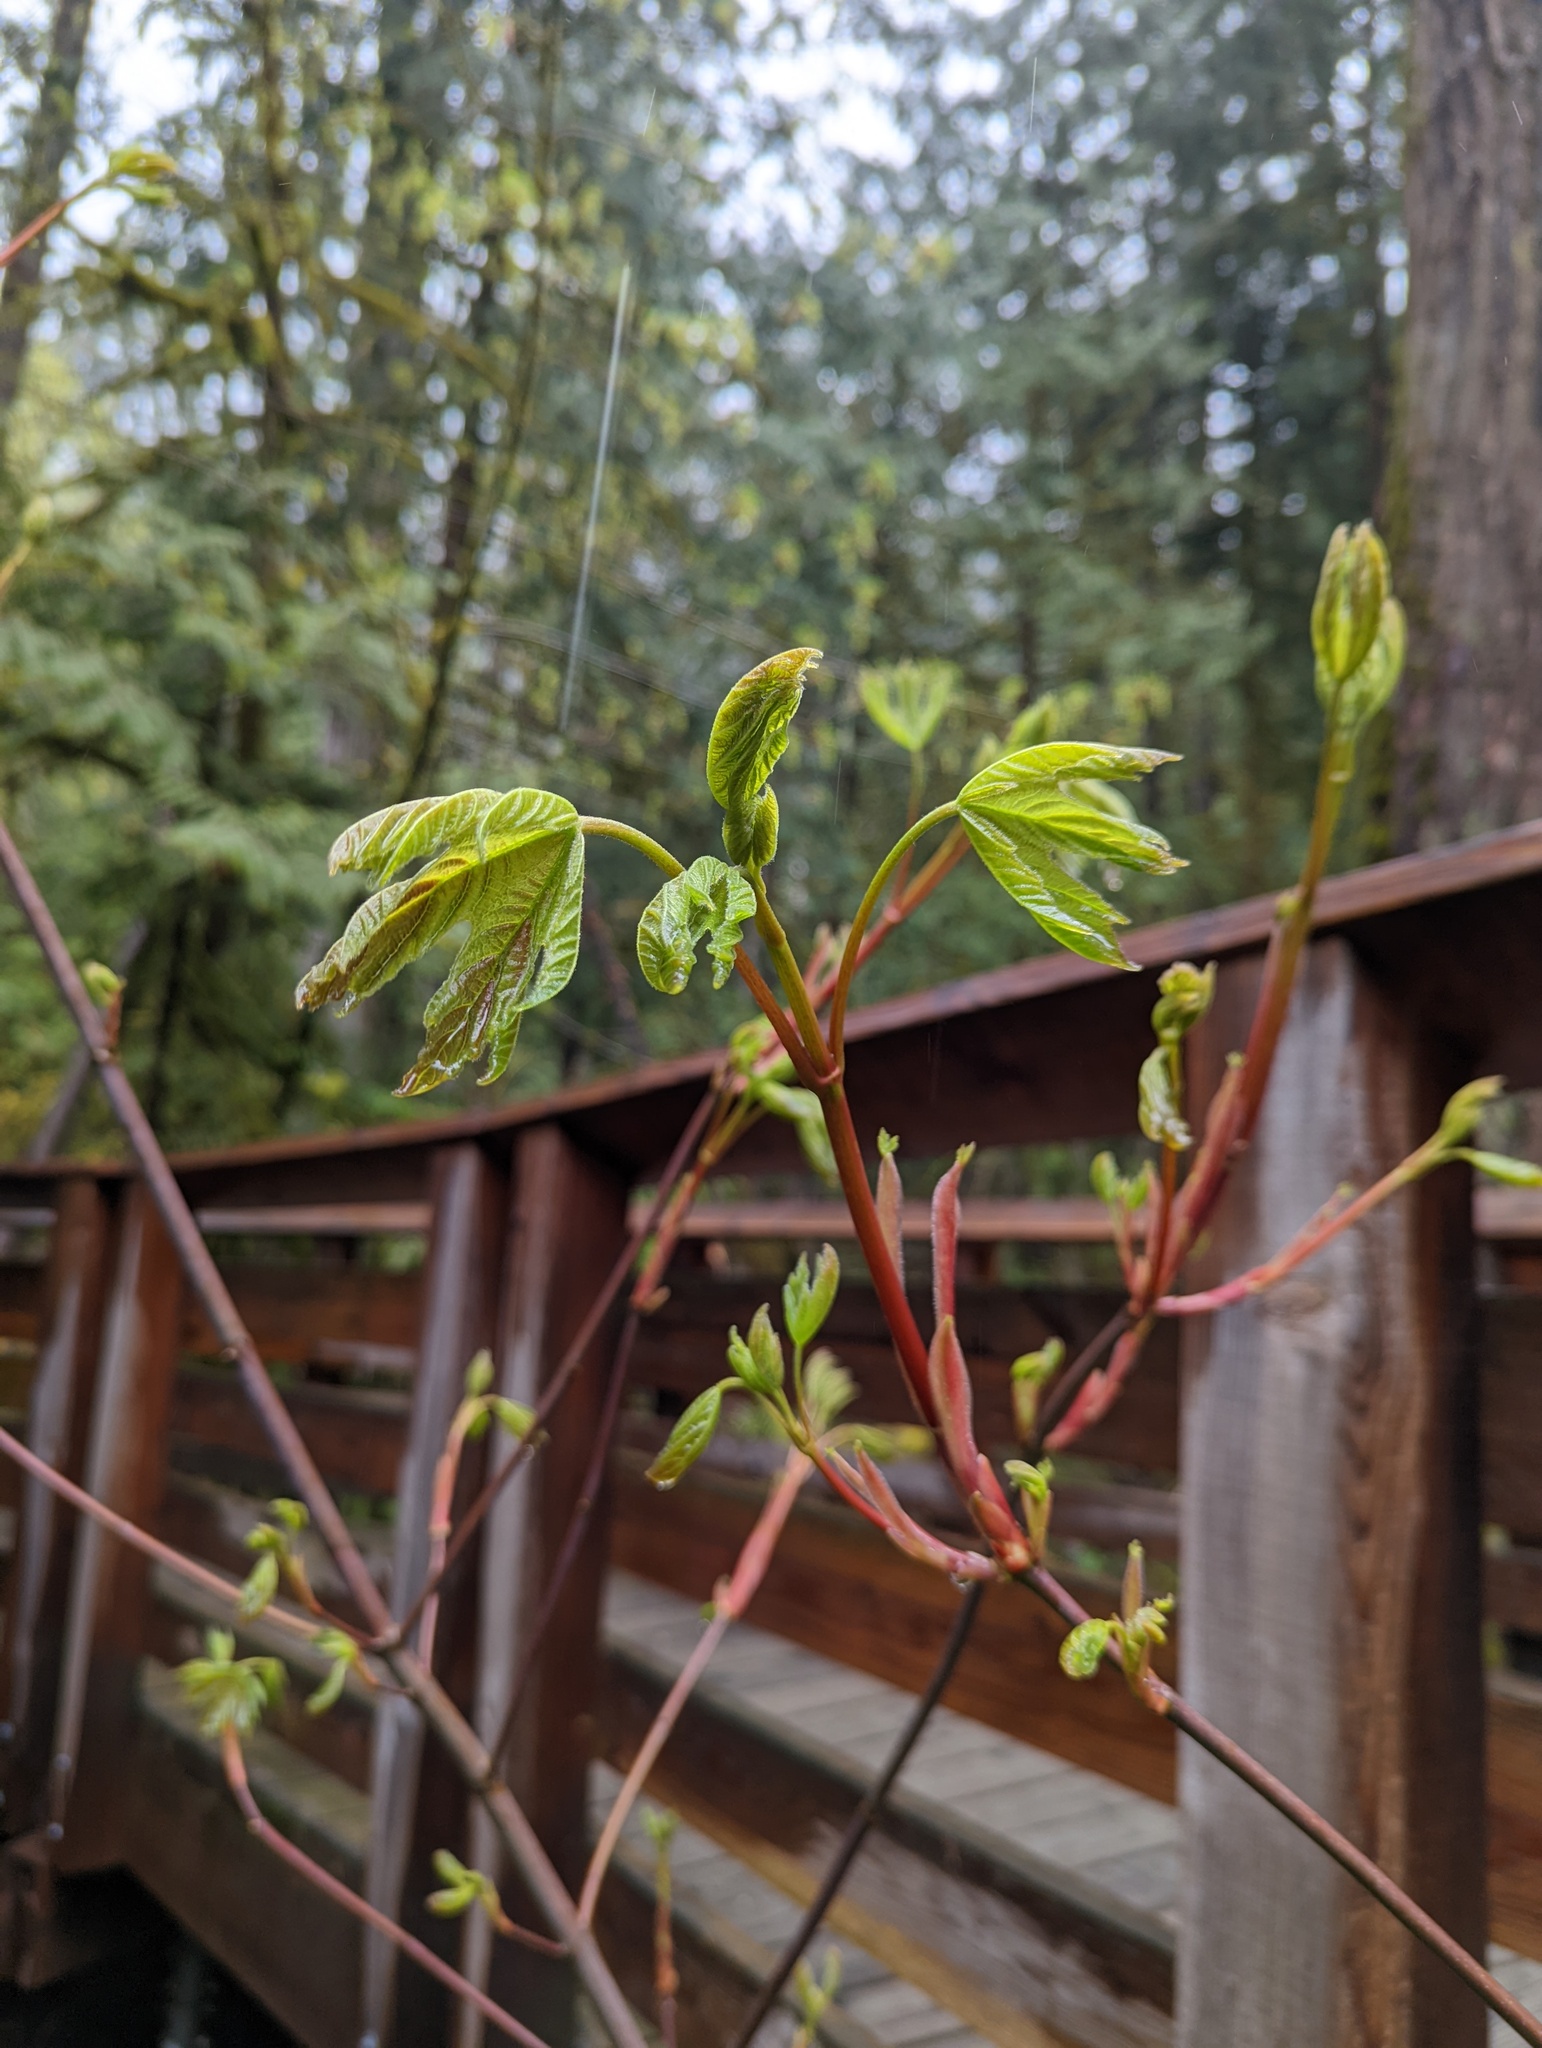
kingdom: Plantae
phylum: Tracheophyta
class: Magnoliopsida
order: Sapindales
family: Sapindaceae
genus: Acer
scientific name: Acer macrophyllum
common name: Oregon maple
